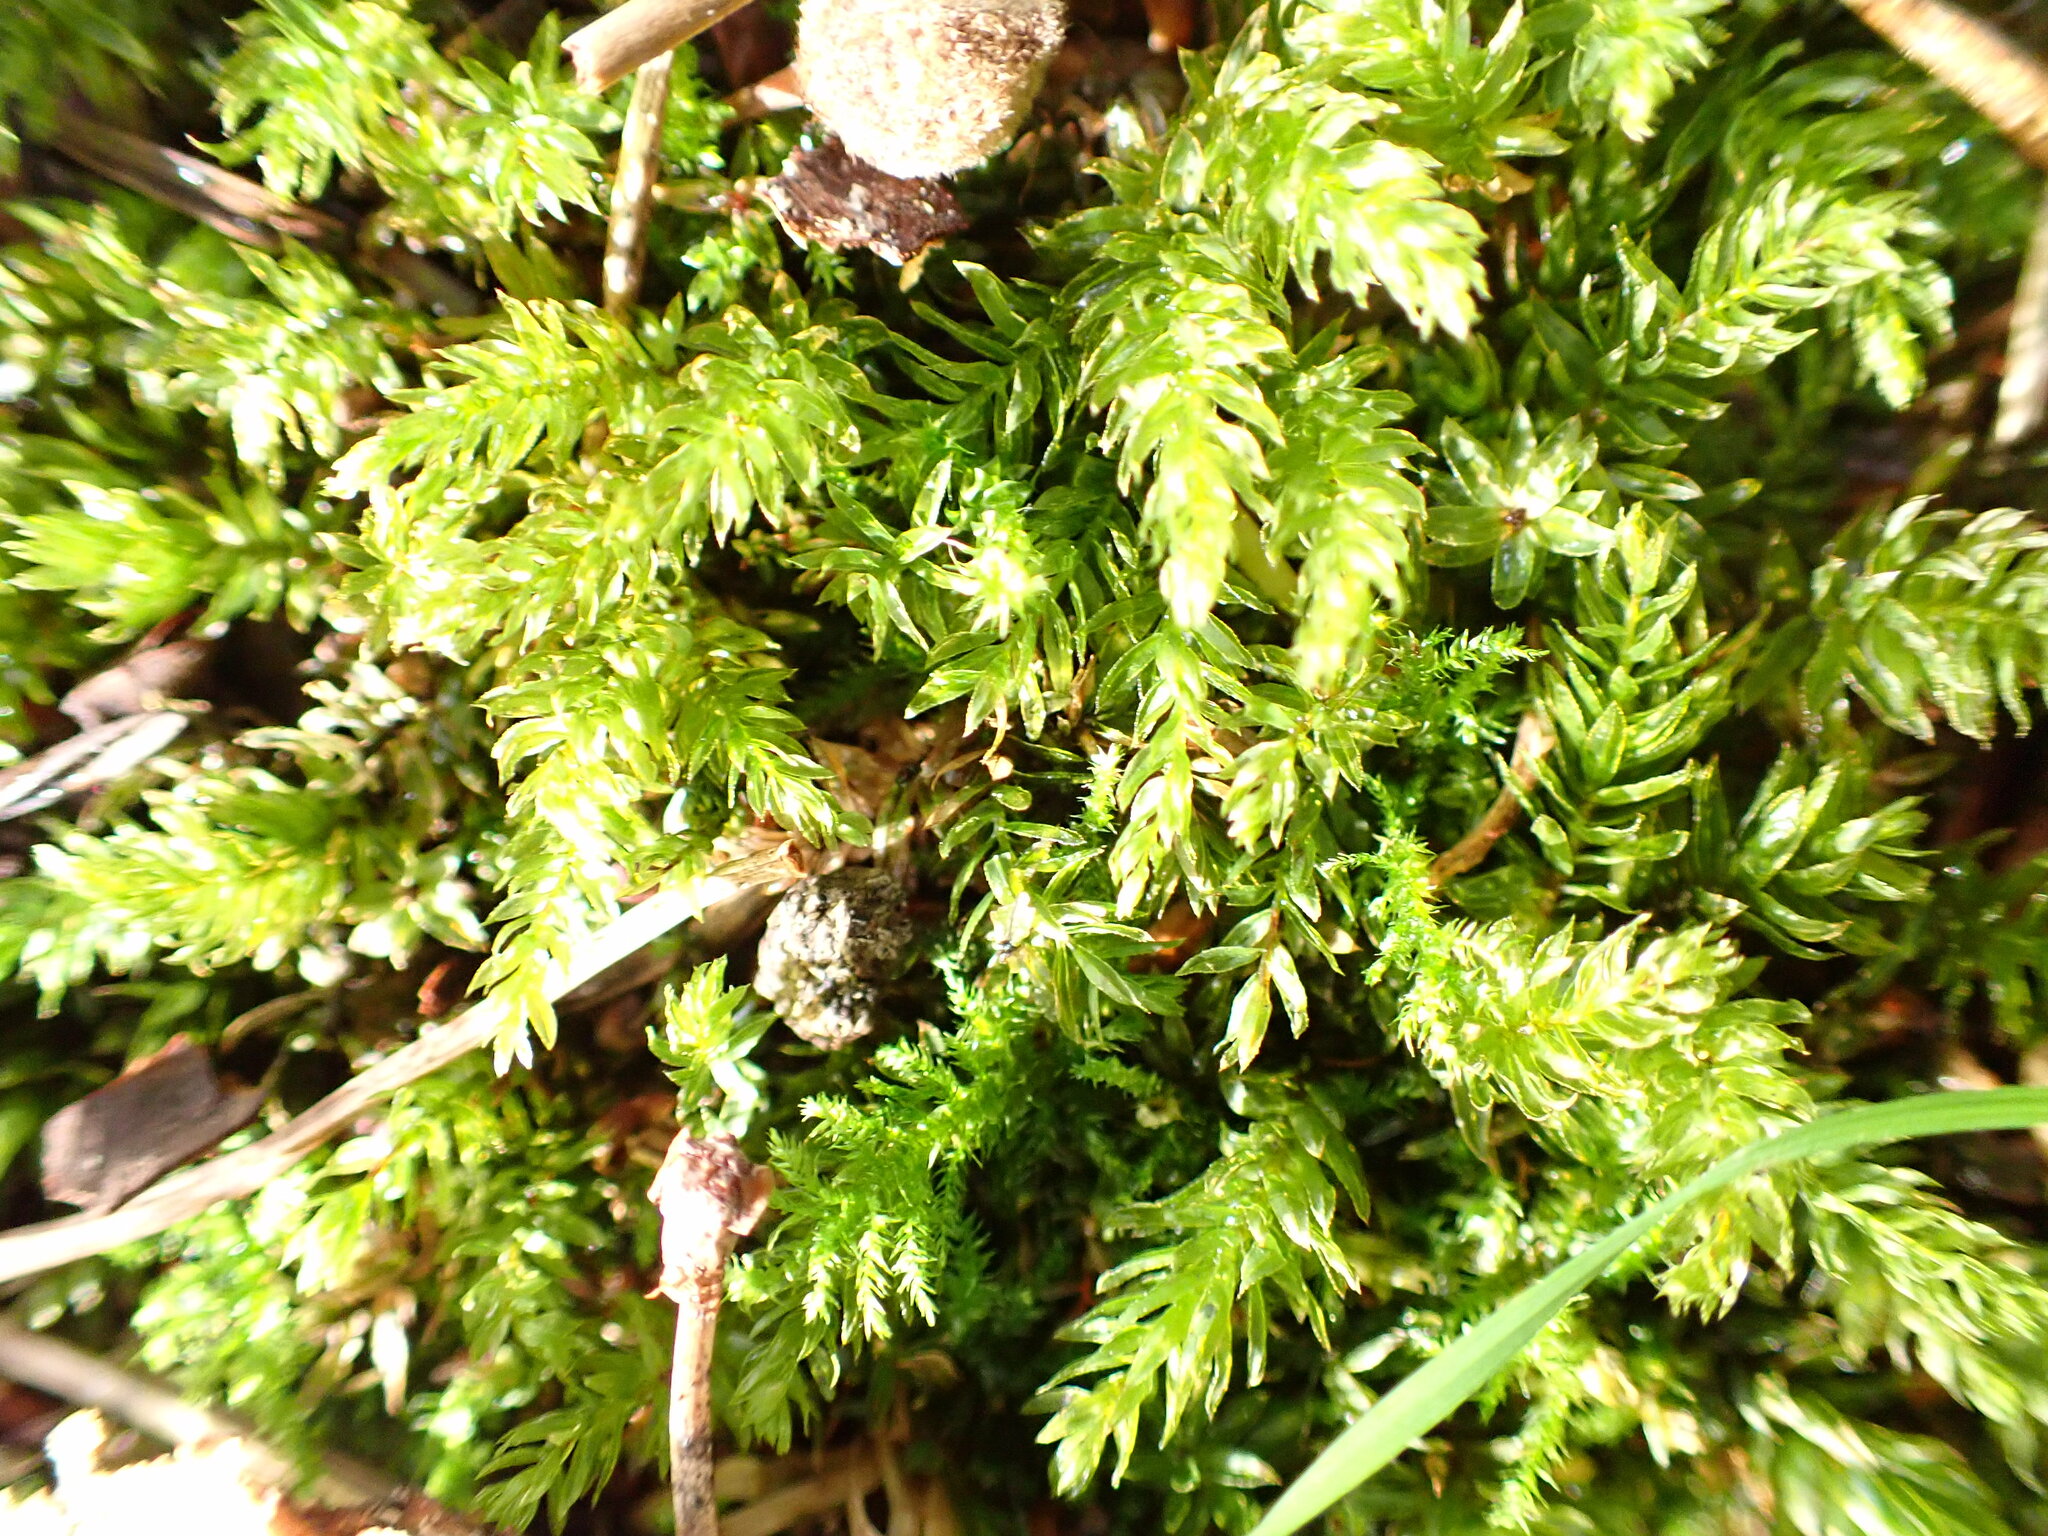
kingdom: Plantae
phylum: Bryophyta
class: Bryopsida
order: Bryales
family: Mniaceae
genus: Mnium
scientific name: Mnium hornum
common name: Swan's-neck leafy moss
